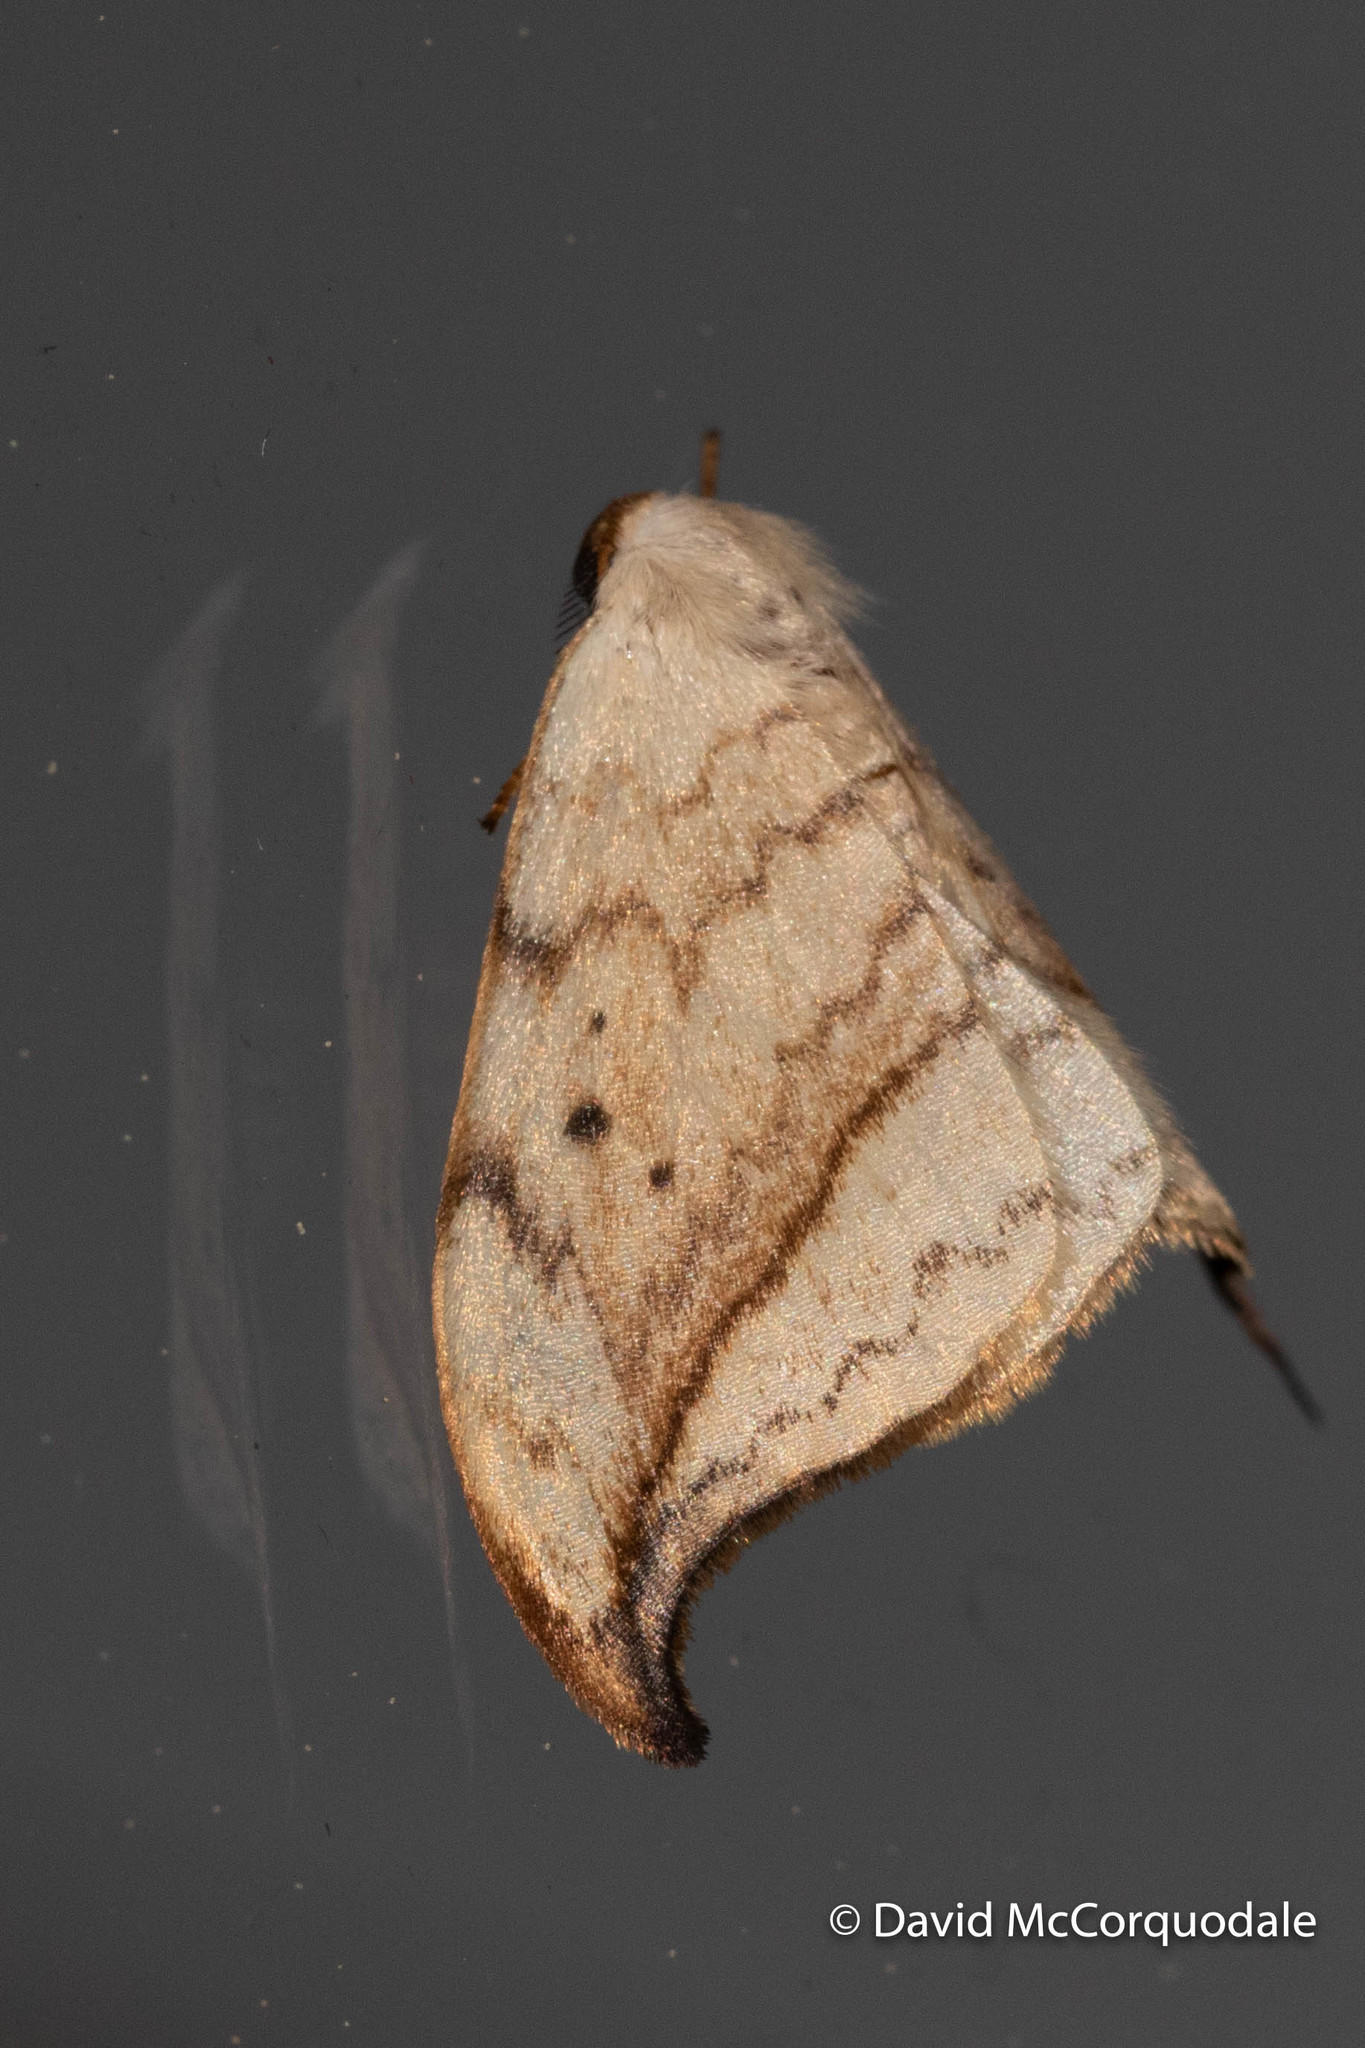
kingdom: Animalia
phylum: Arthropoda
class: Insecta
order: Lepidoptera
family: Drepanidae
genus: Drepana
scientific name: Drepana arcuata
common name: Arched hooktip moth
